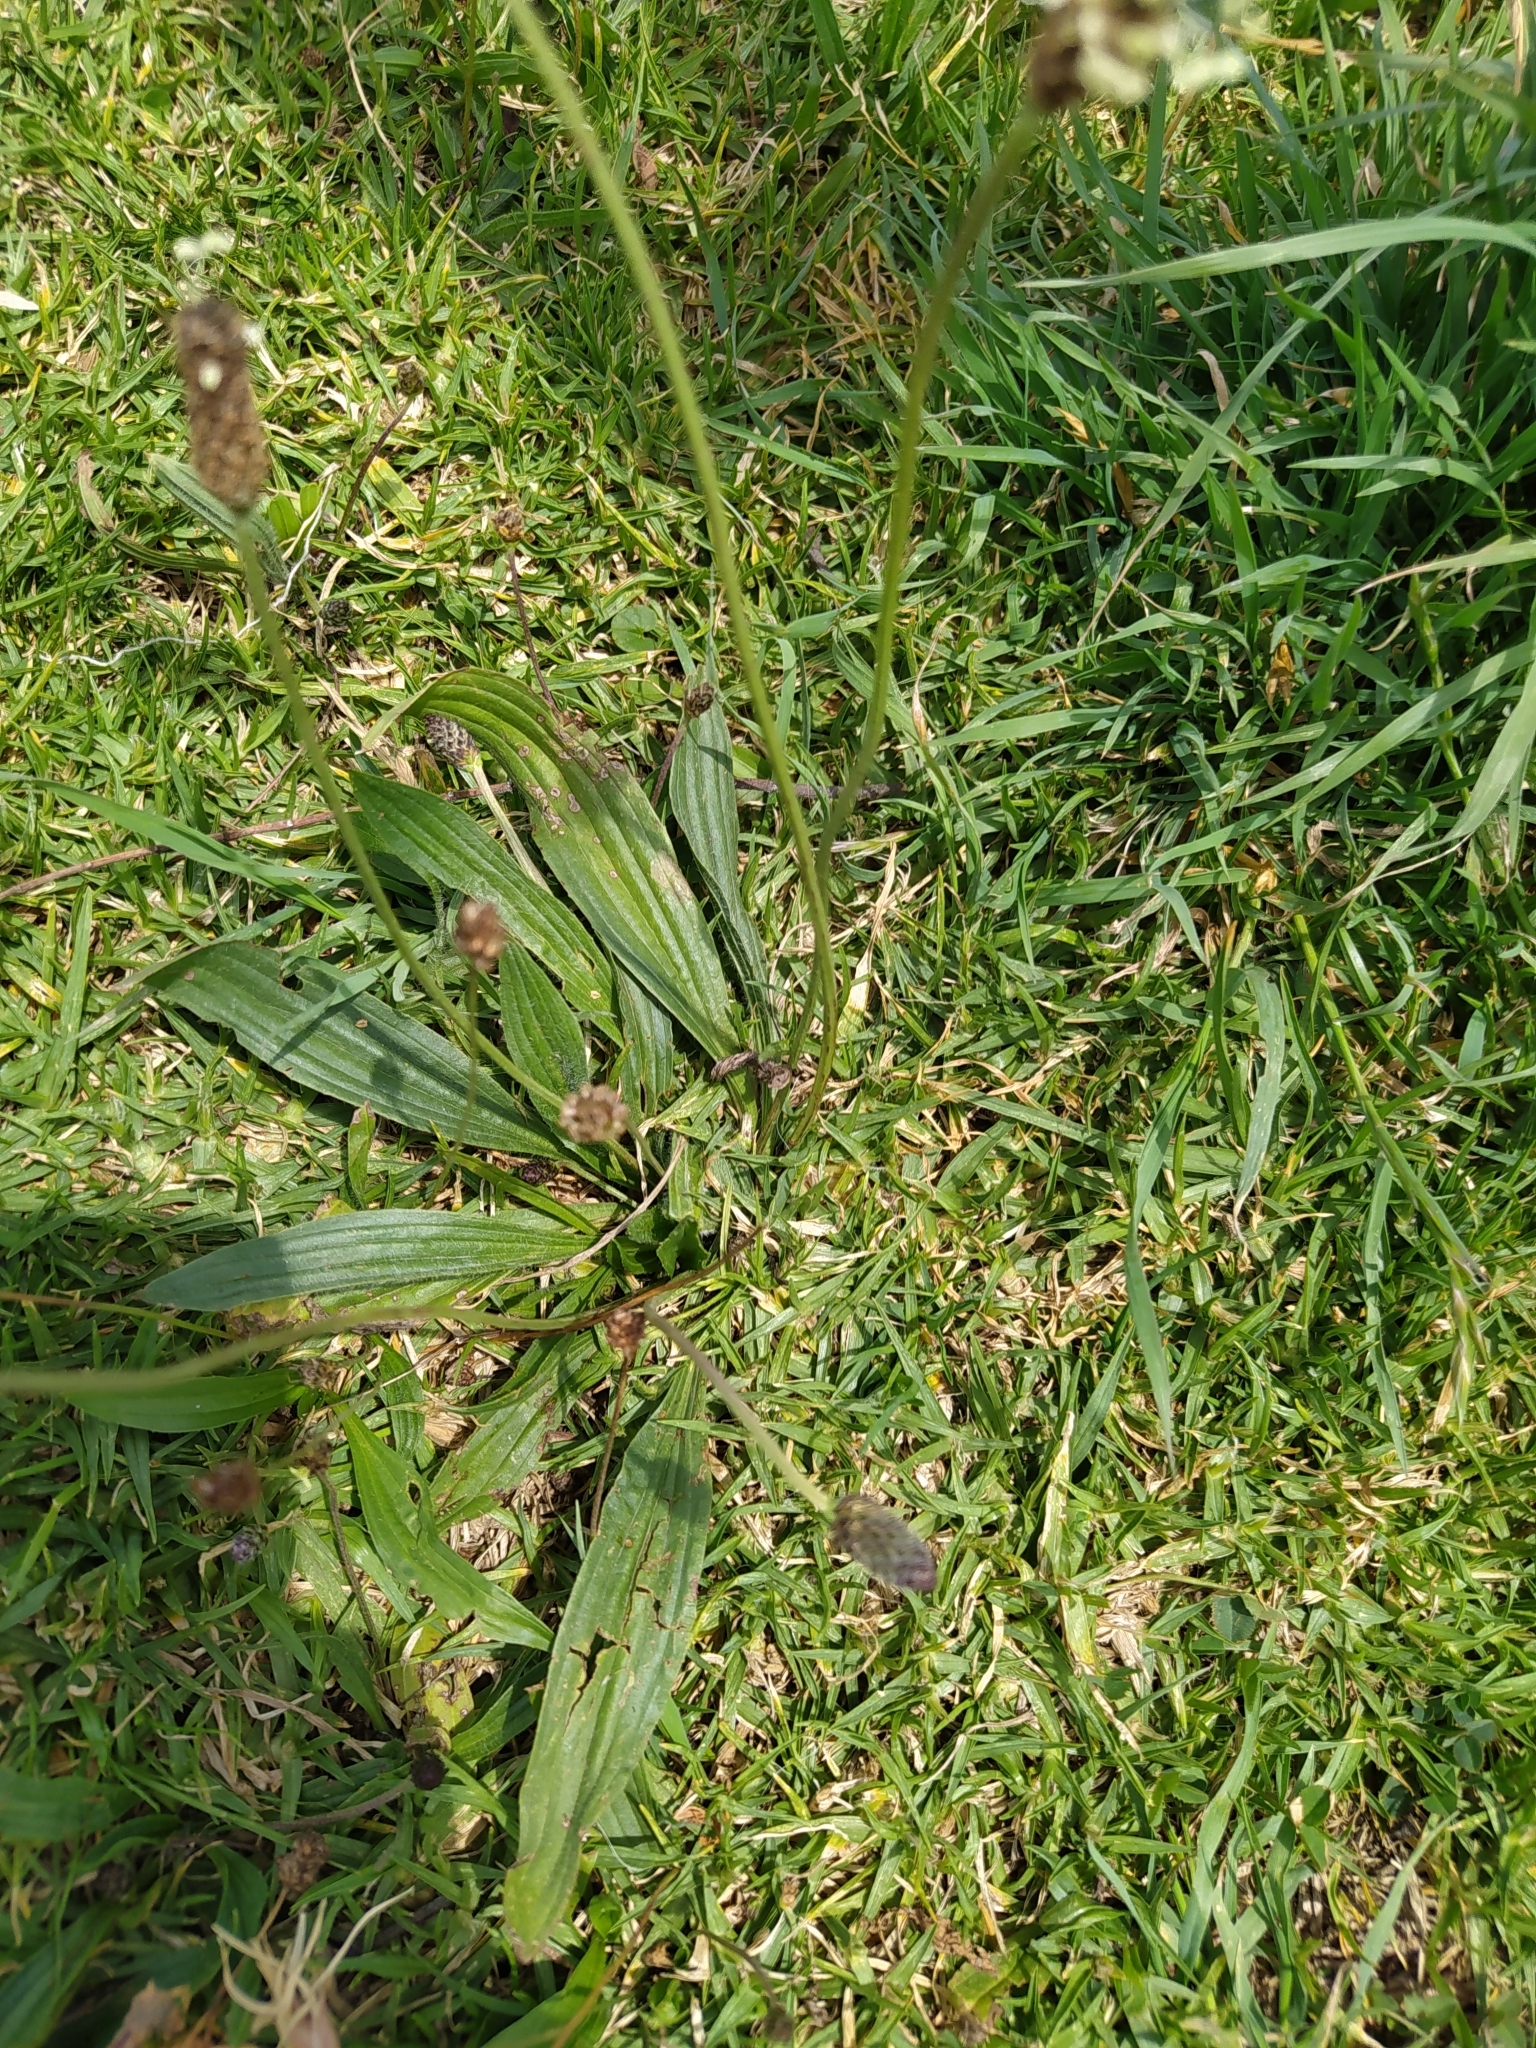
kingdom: Plantae
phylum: Tracheophyta
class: Magnoliopsida
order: Lamiales
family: Plantaginaceae
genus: Plantago
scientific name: Plantago lanceolata
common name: Ribwort plantain
